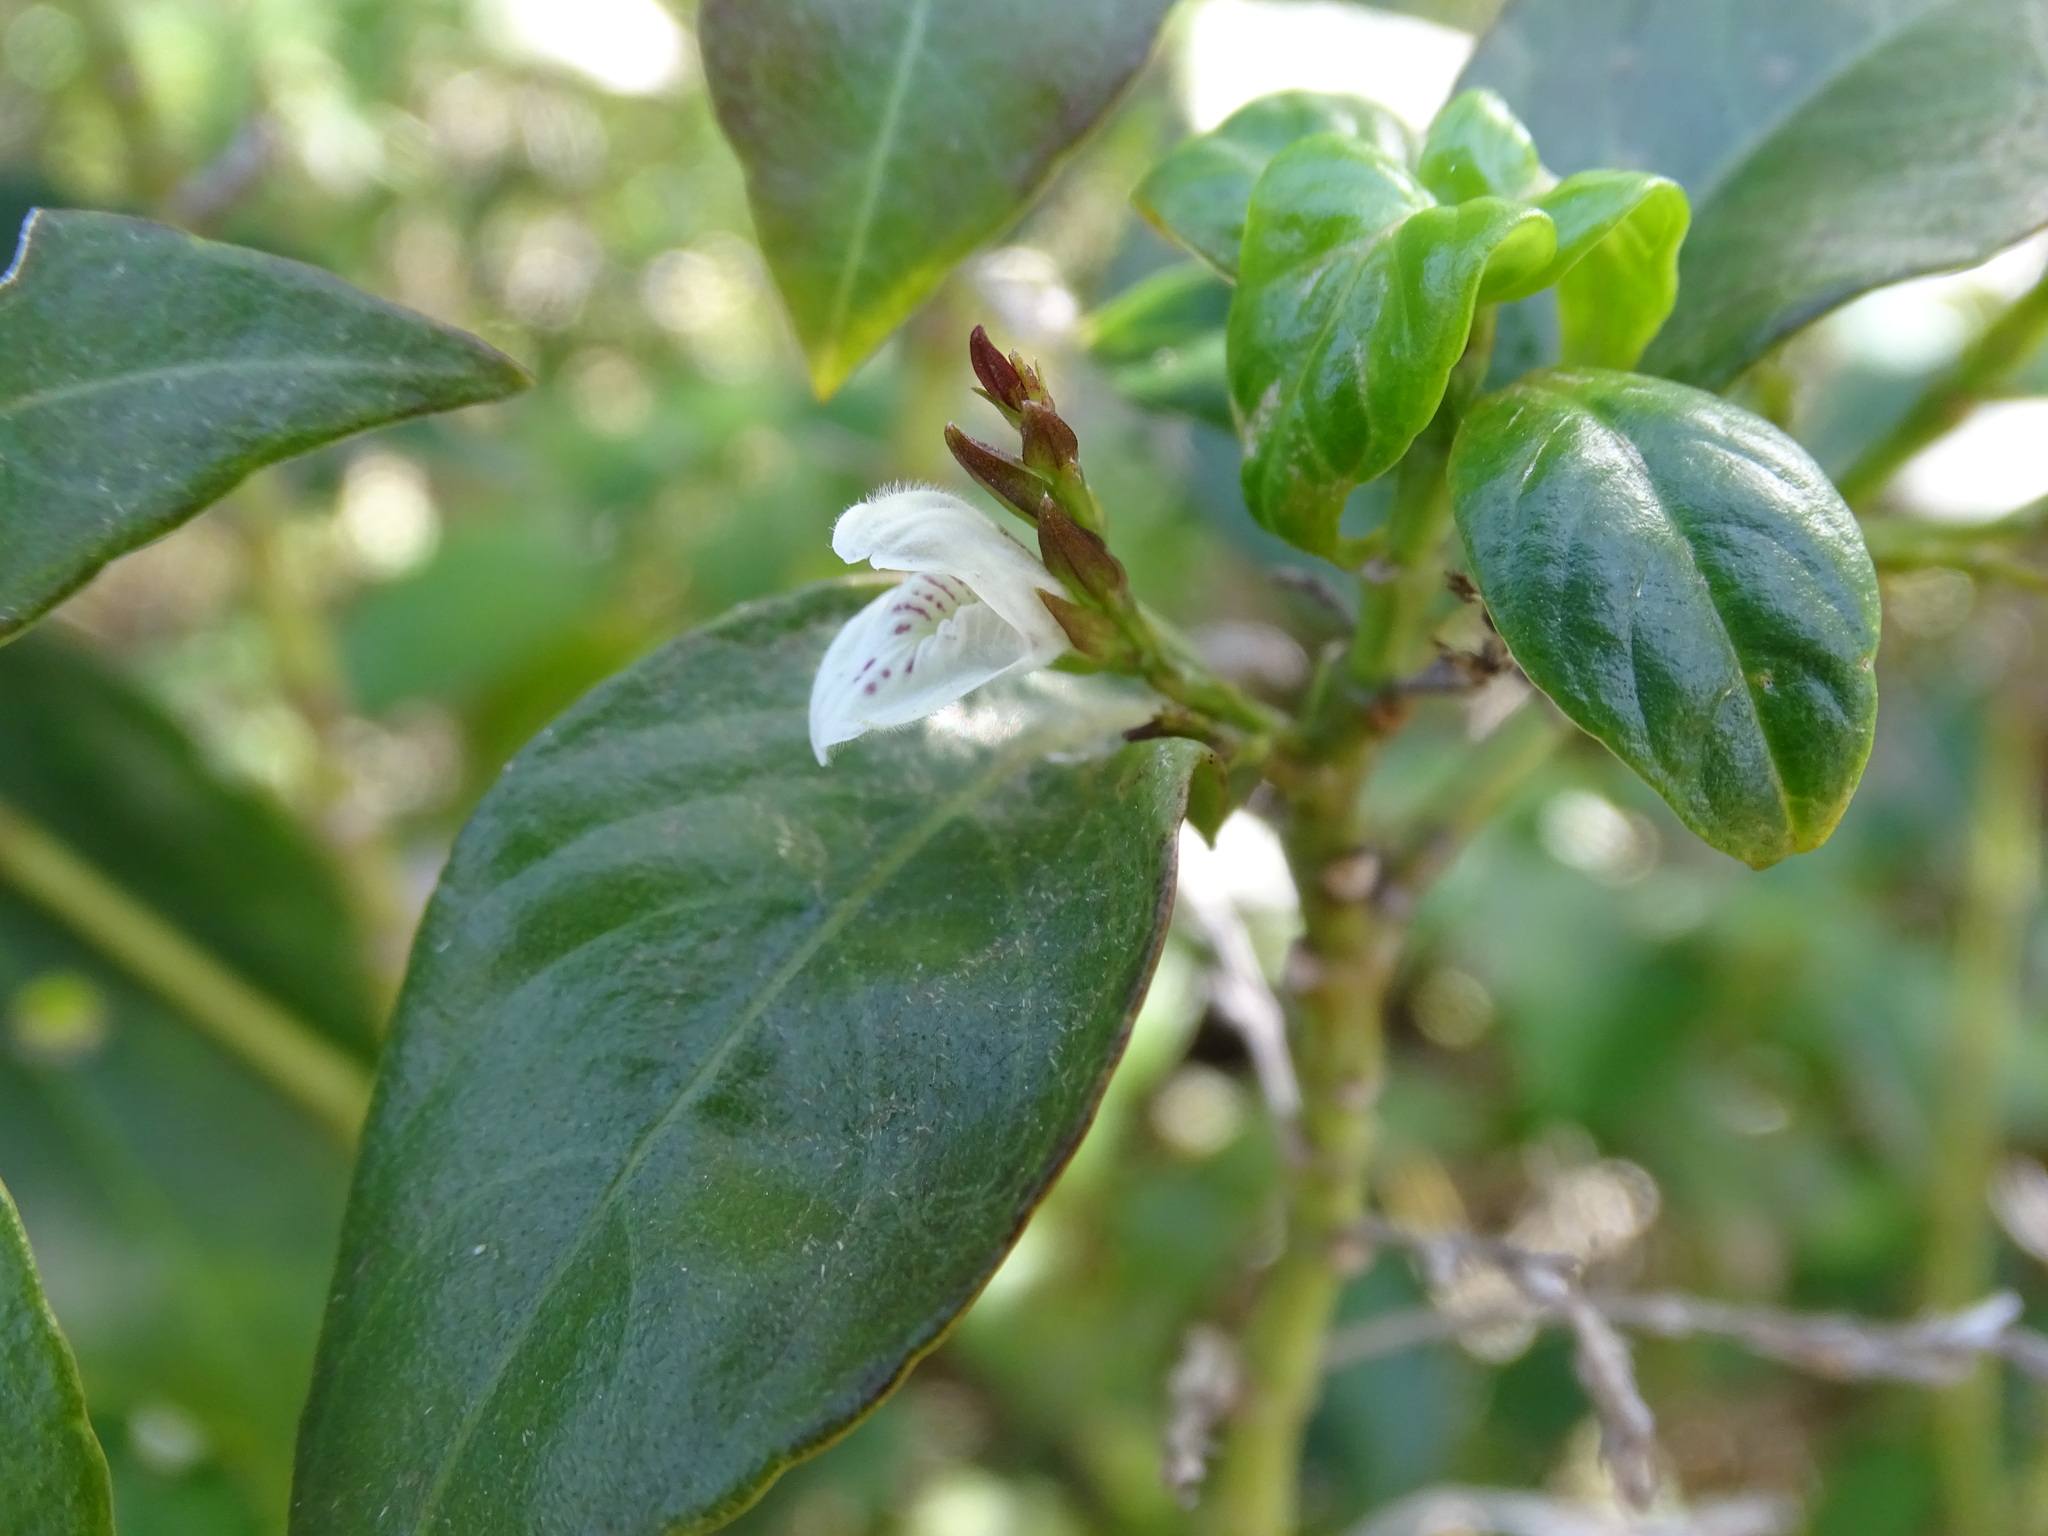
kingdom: Plantae
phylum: Tracheophyta
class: Magnoliopsida
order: Lamiales
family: Acanthaceae
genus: Justicia
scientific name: Justicia campechiana
